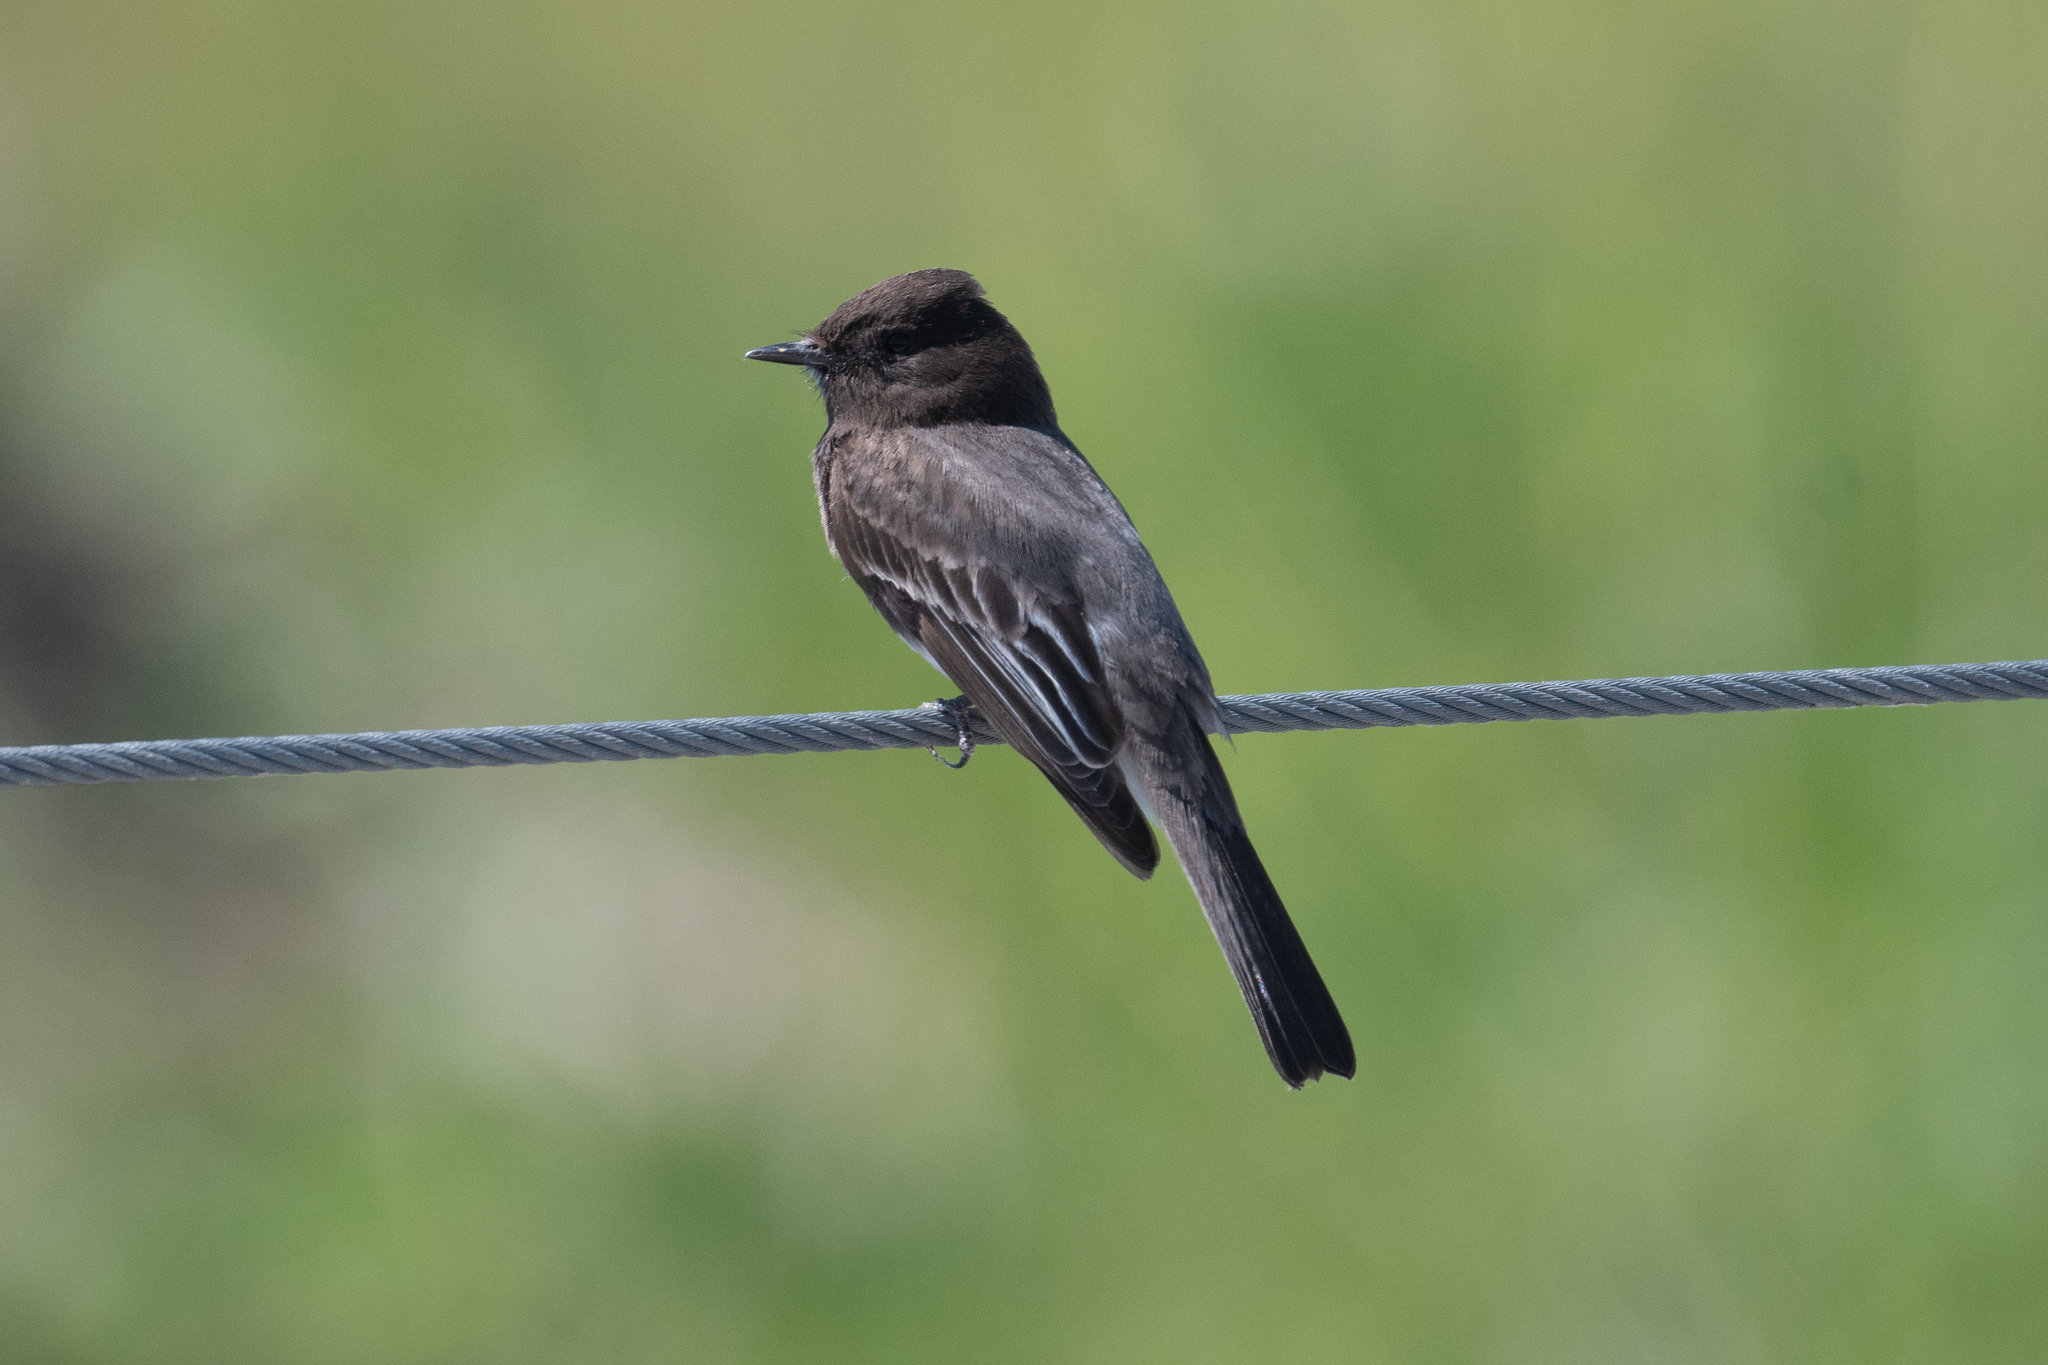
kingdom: Animalia
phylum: Chordata
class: Aves
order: Passeriformes
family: Tyrannidae
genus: Sayornis
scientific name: Sayornis nigricans
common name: Black phoebe
